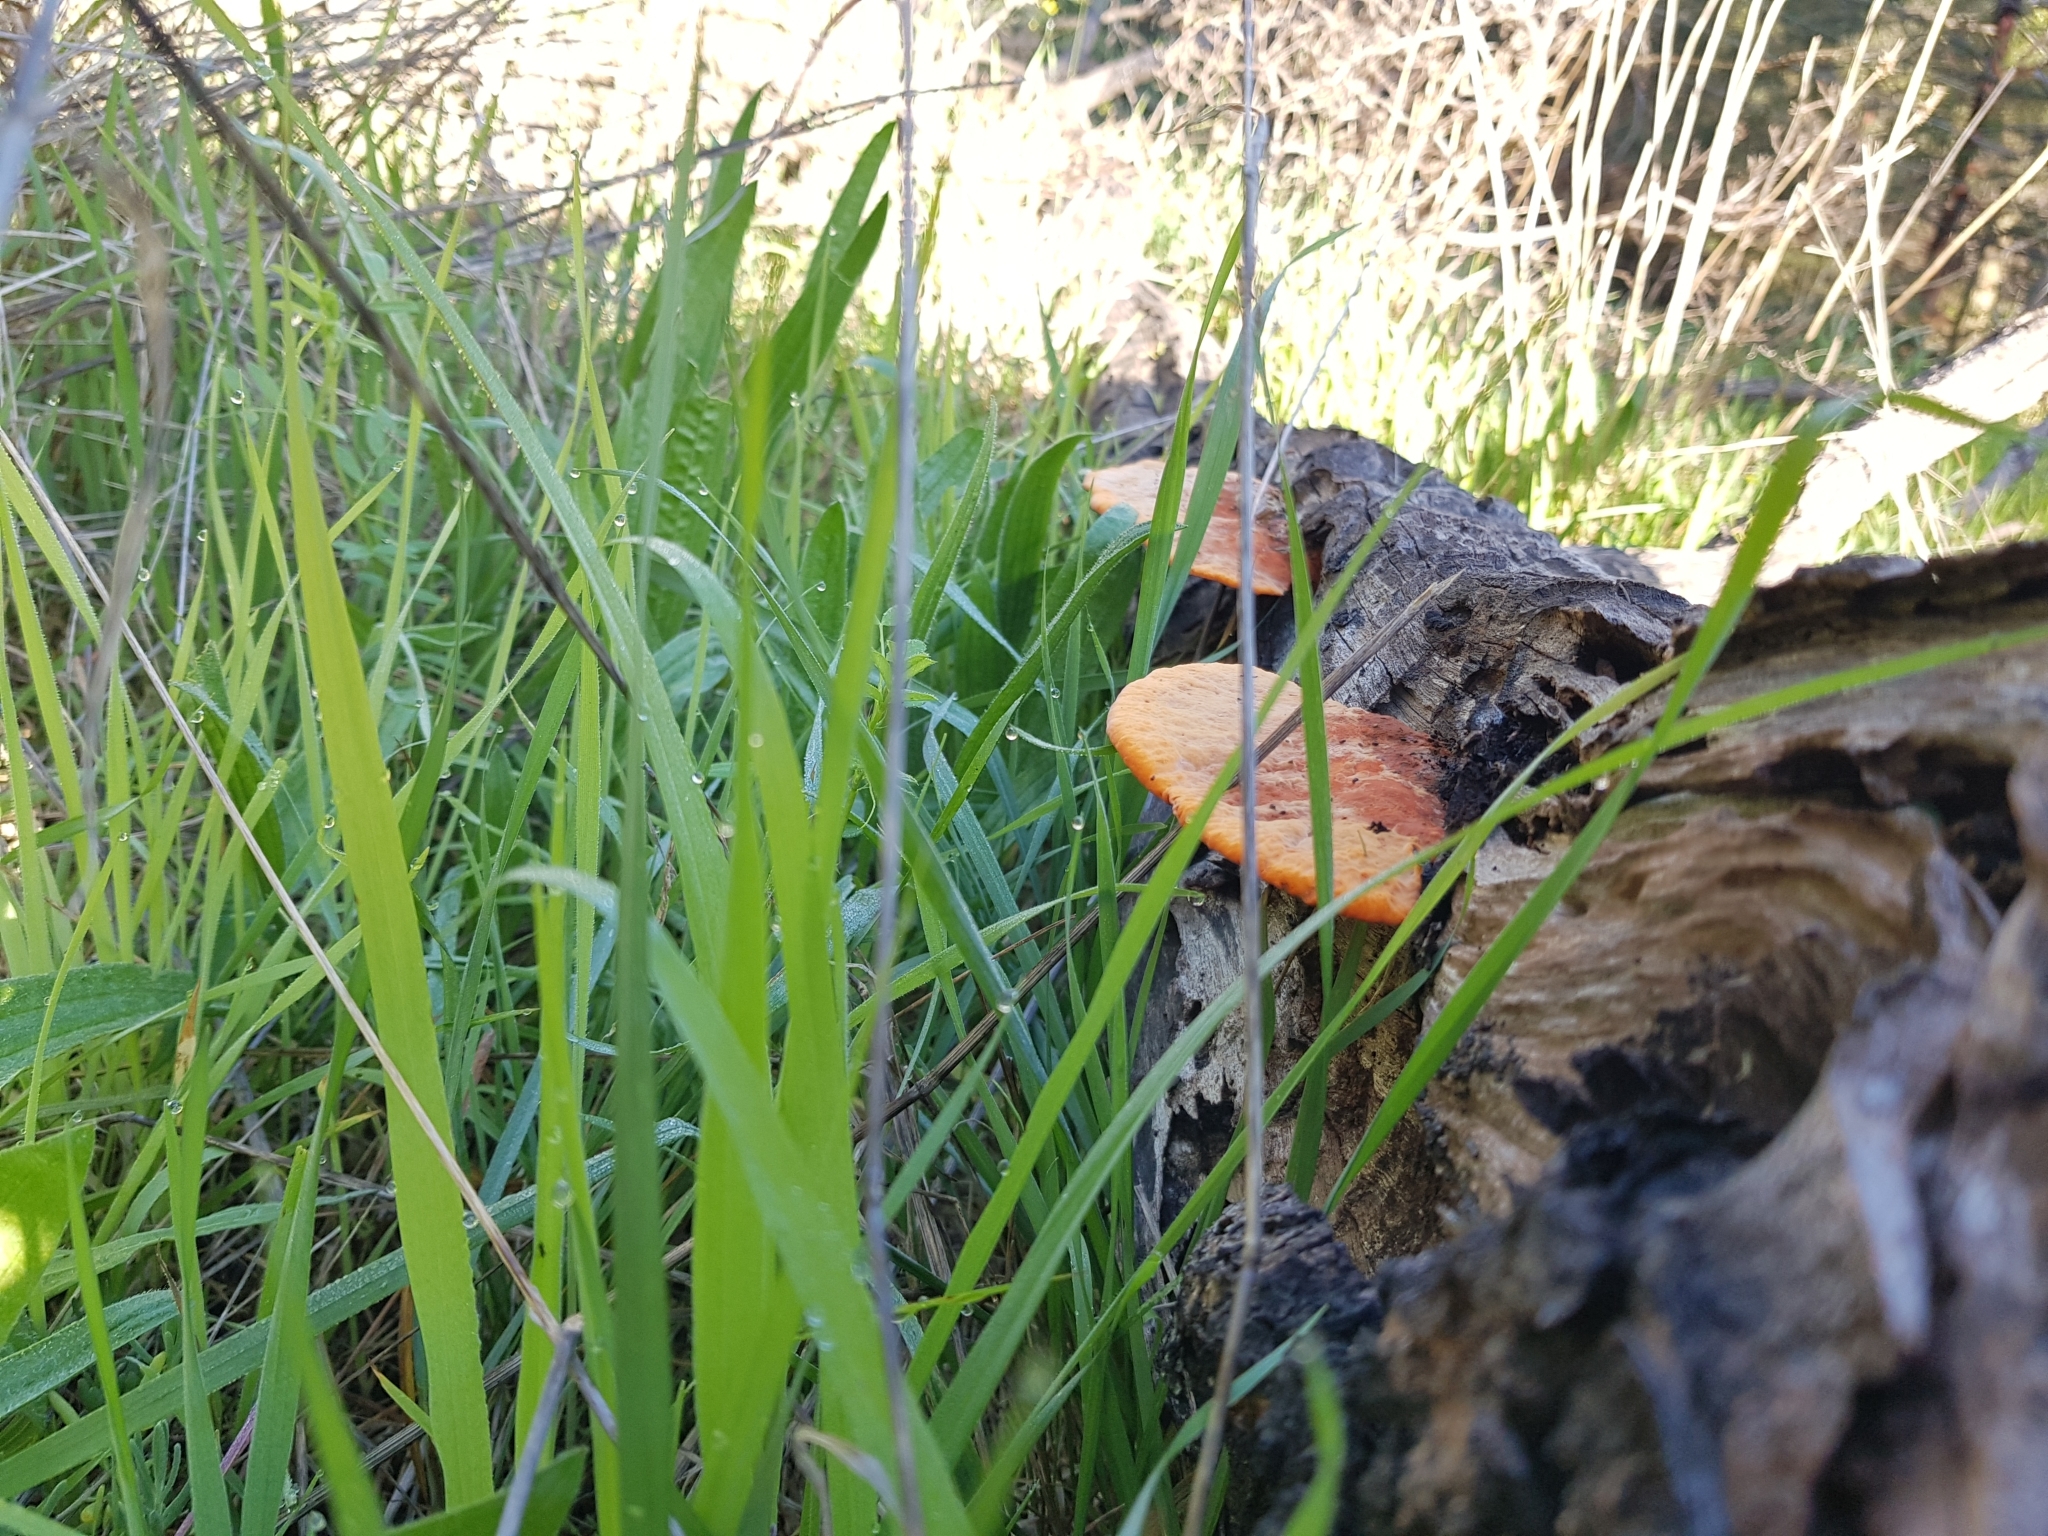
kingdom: Fungi
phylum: Basidiomycota
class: Agaricomycetes
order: Polyporales
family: Polyporaceae
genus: Trametes
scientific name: Trametes coccinea
